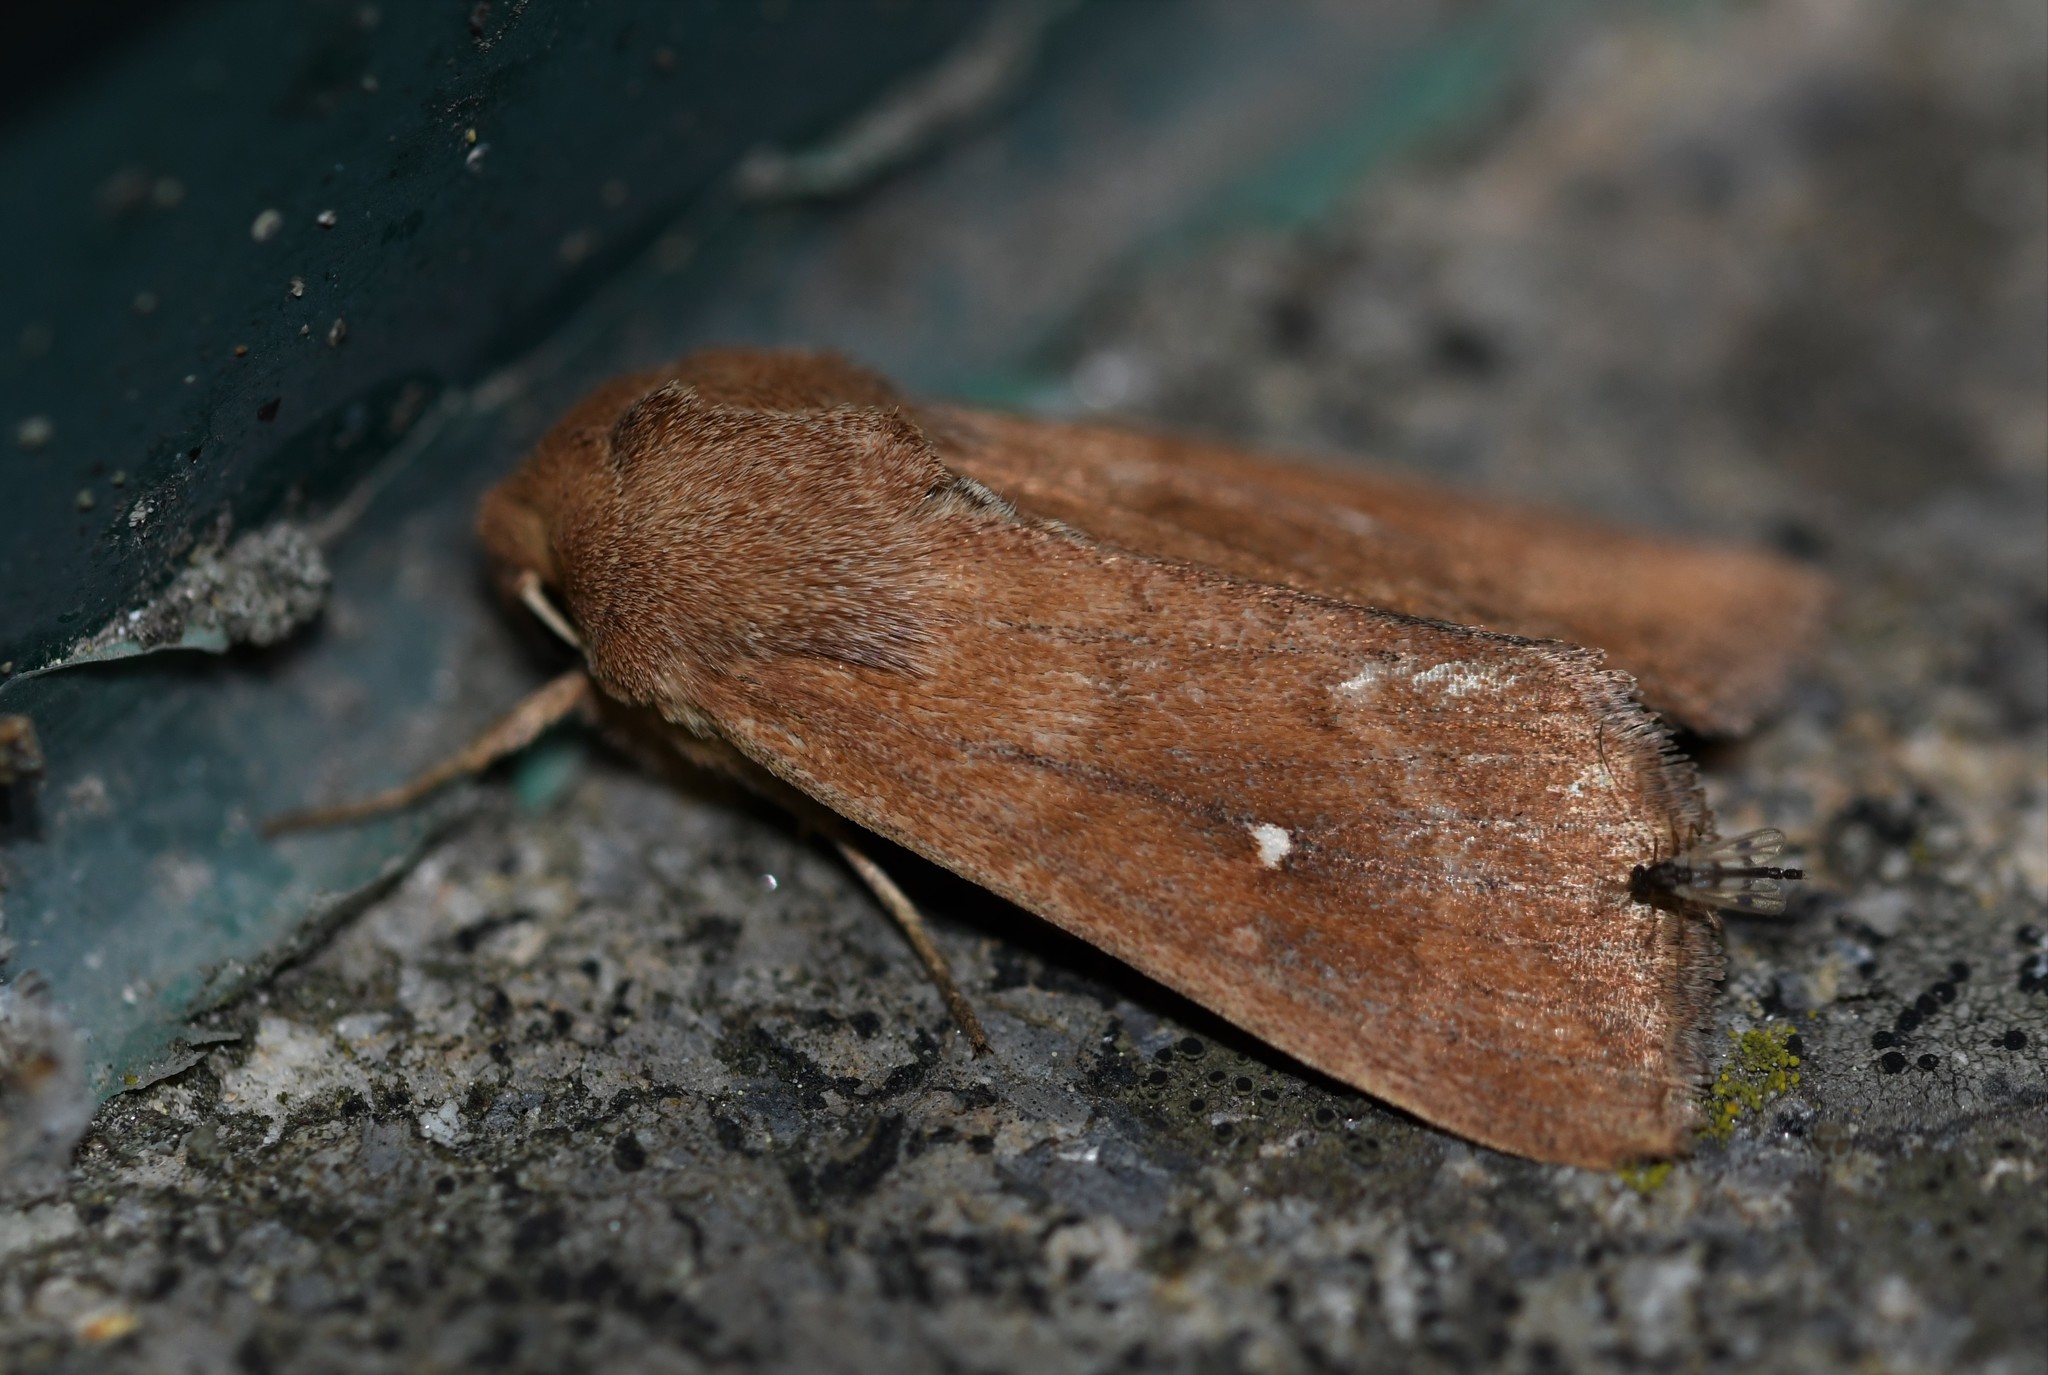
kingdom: Animalia
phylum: Arthropoda
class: Insecta
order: Lepidoptera
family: Noctuidae
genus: Mythimna
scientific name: Mythimna albipuncta
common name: White-point
